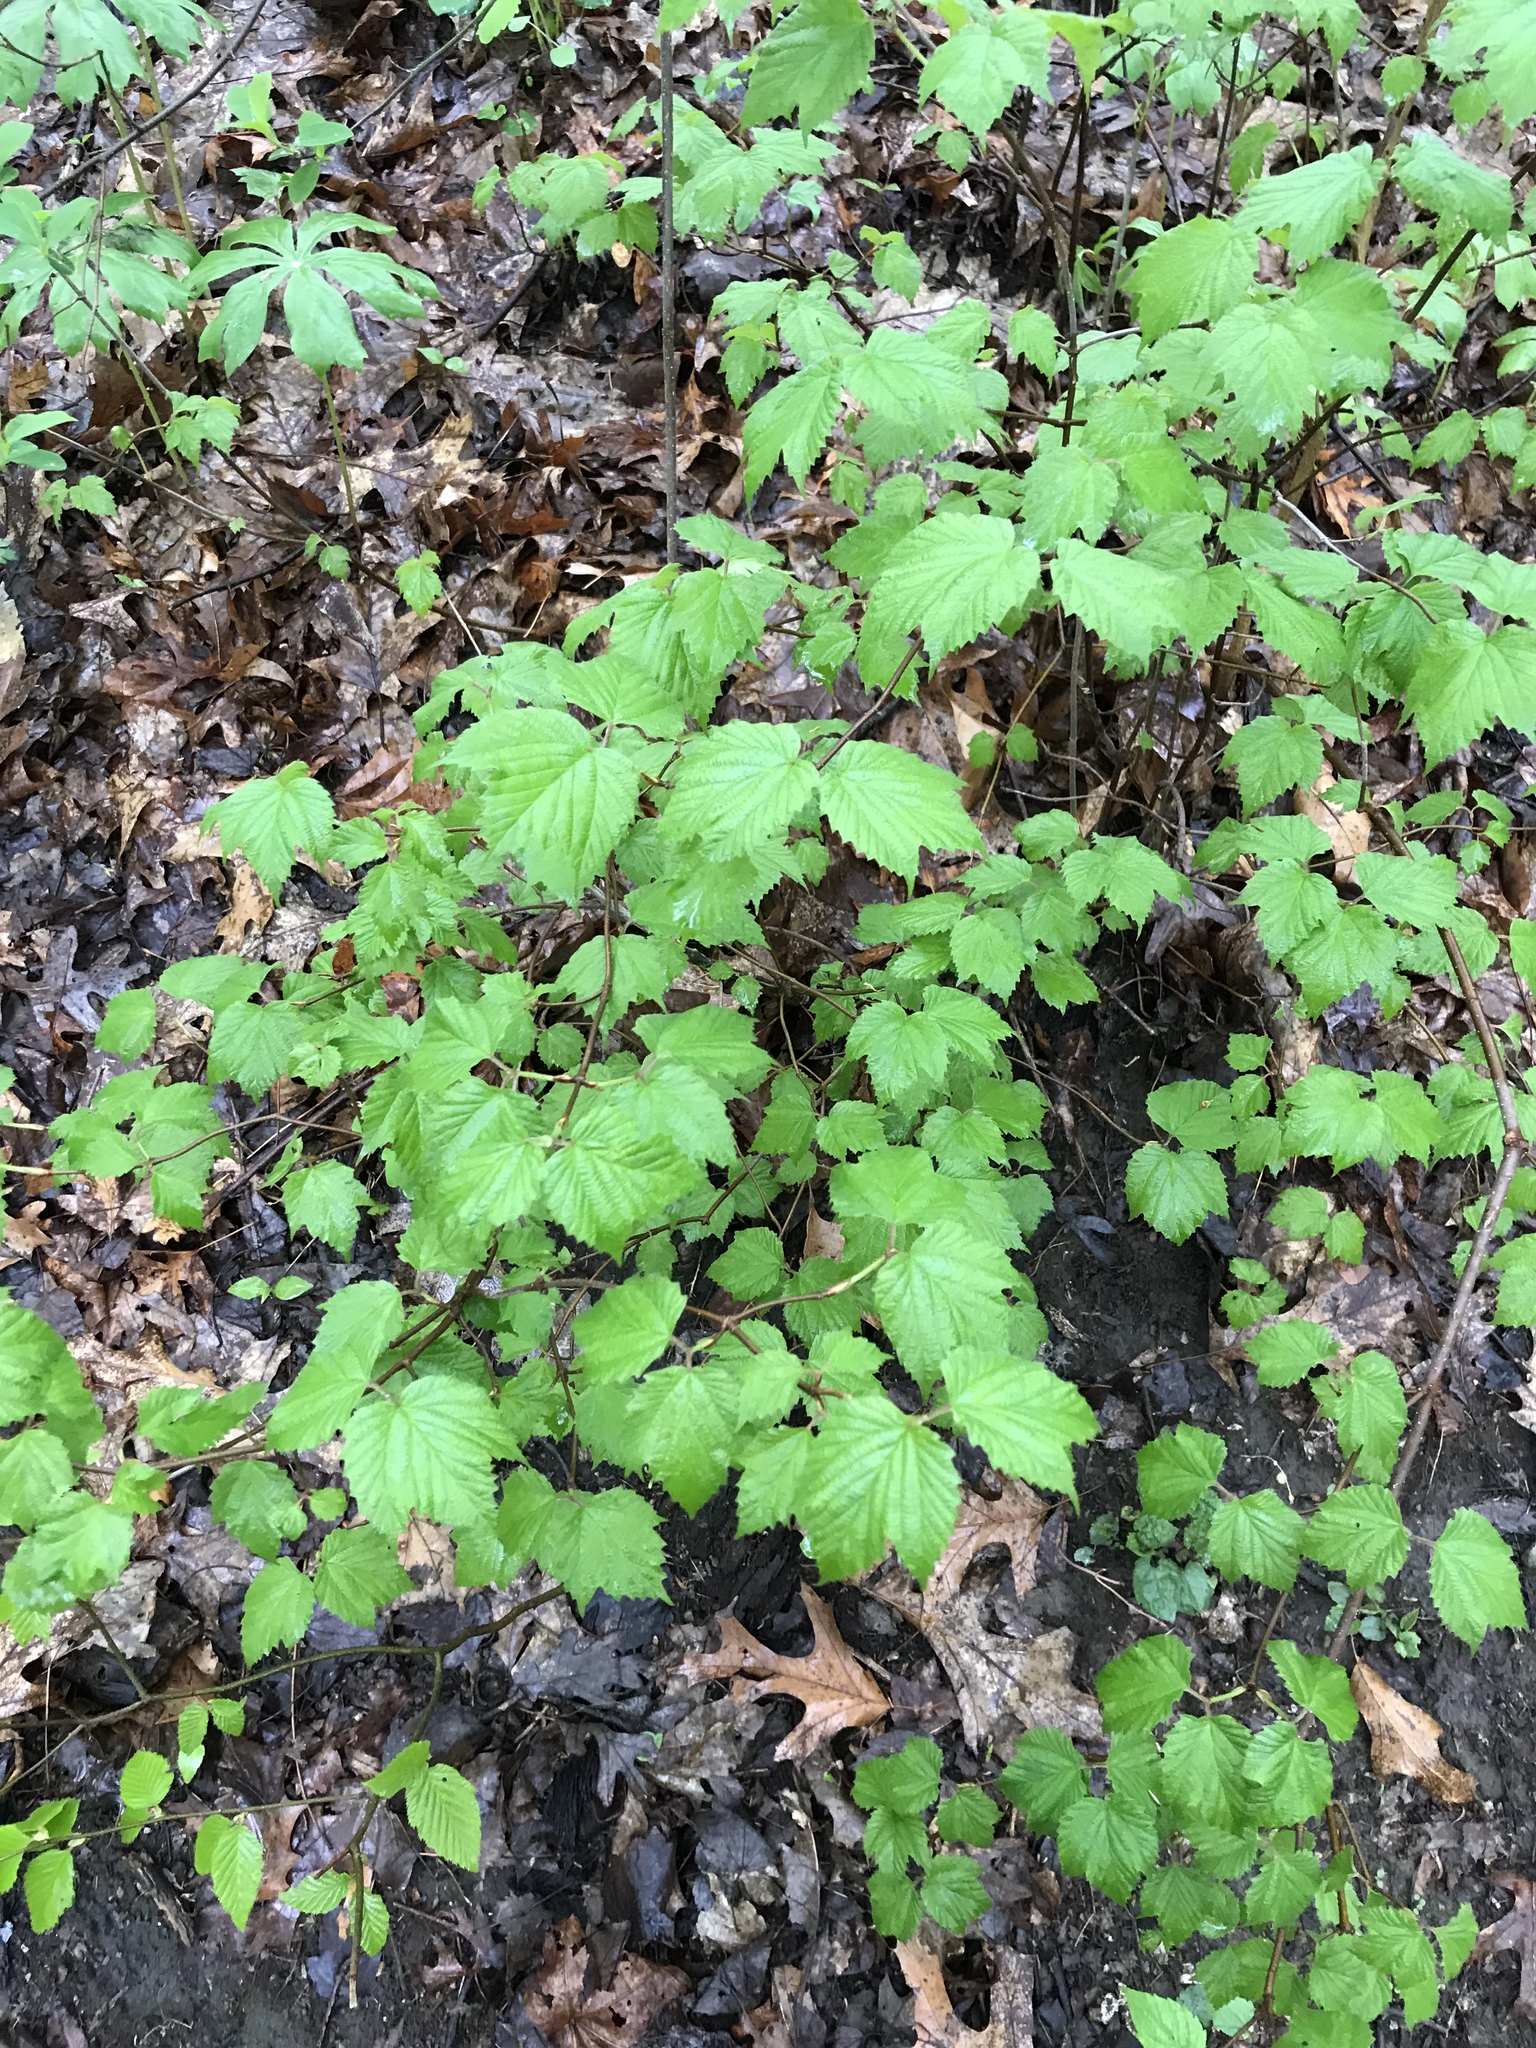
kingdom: Plantae
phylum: Tracheophyta
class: Magnoliopsida
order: Dipsacales
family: Viburnaceae
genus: Viburnum
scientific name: Viburnum acerifolium
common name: Dockmackie
